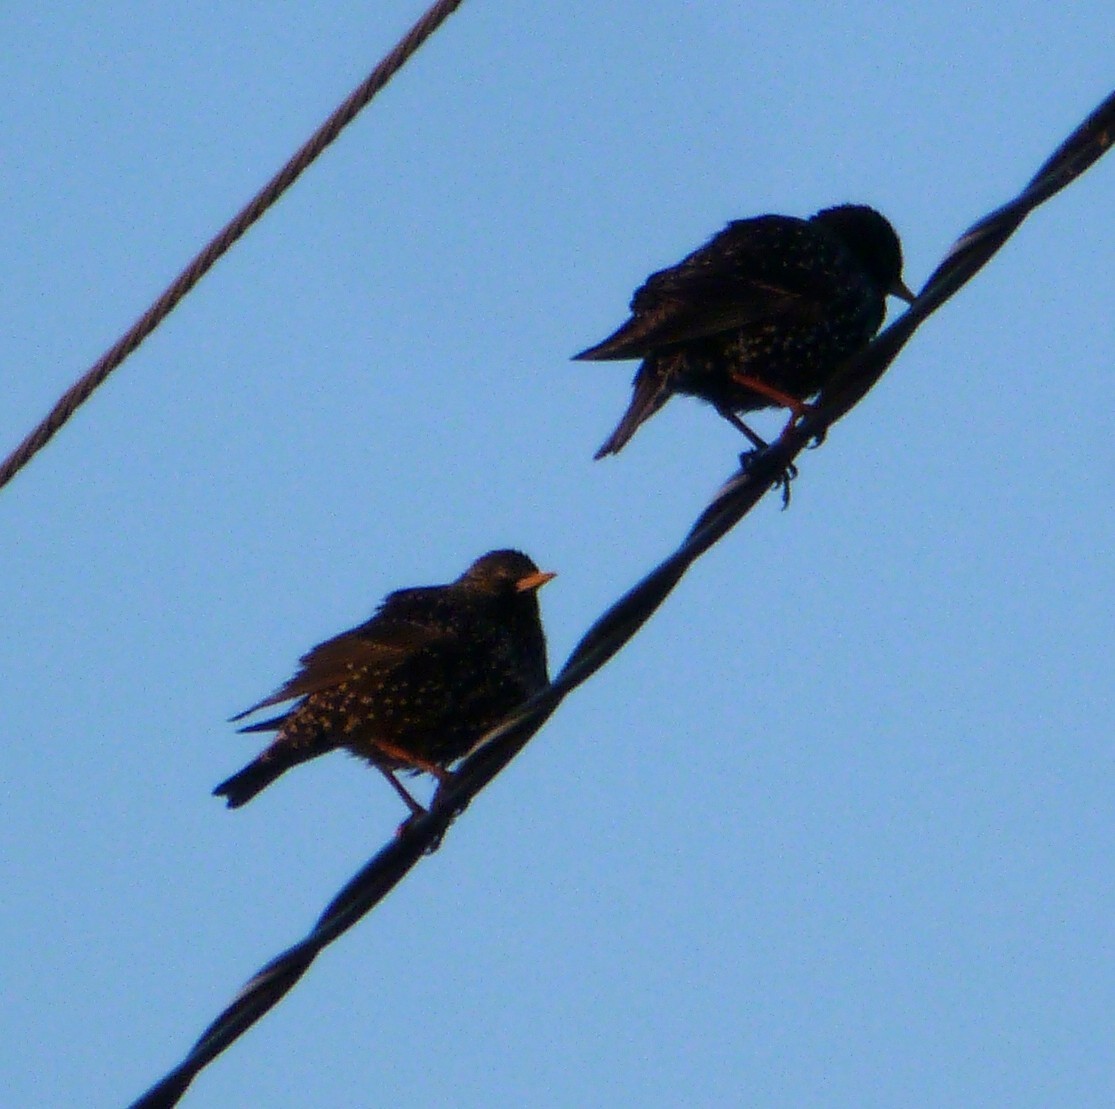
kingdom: Animalia
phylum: Chordata
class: Aves
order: Passeriformes
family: Sturnidae
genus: Sturnus
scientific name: Sturnus vulgaris
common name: Common starling
